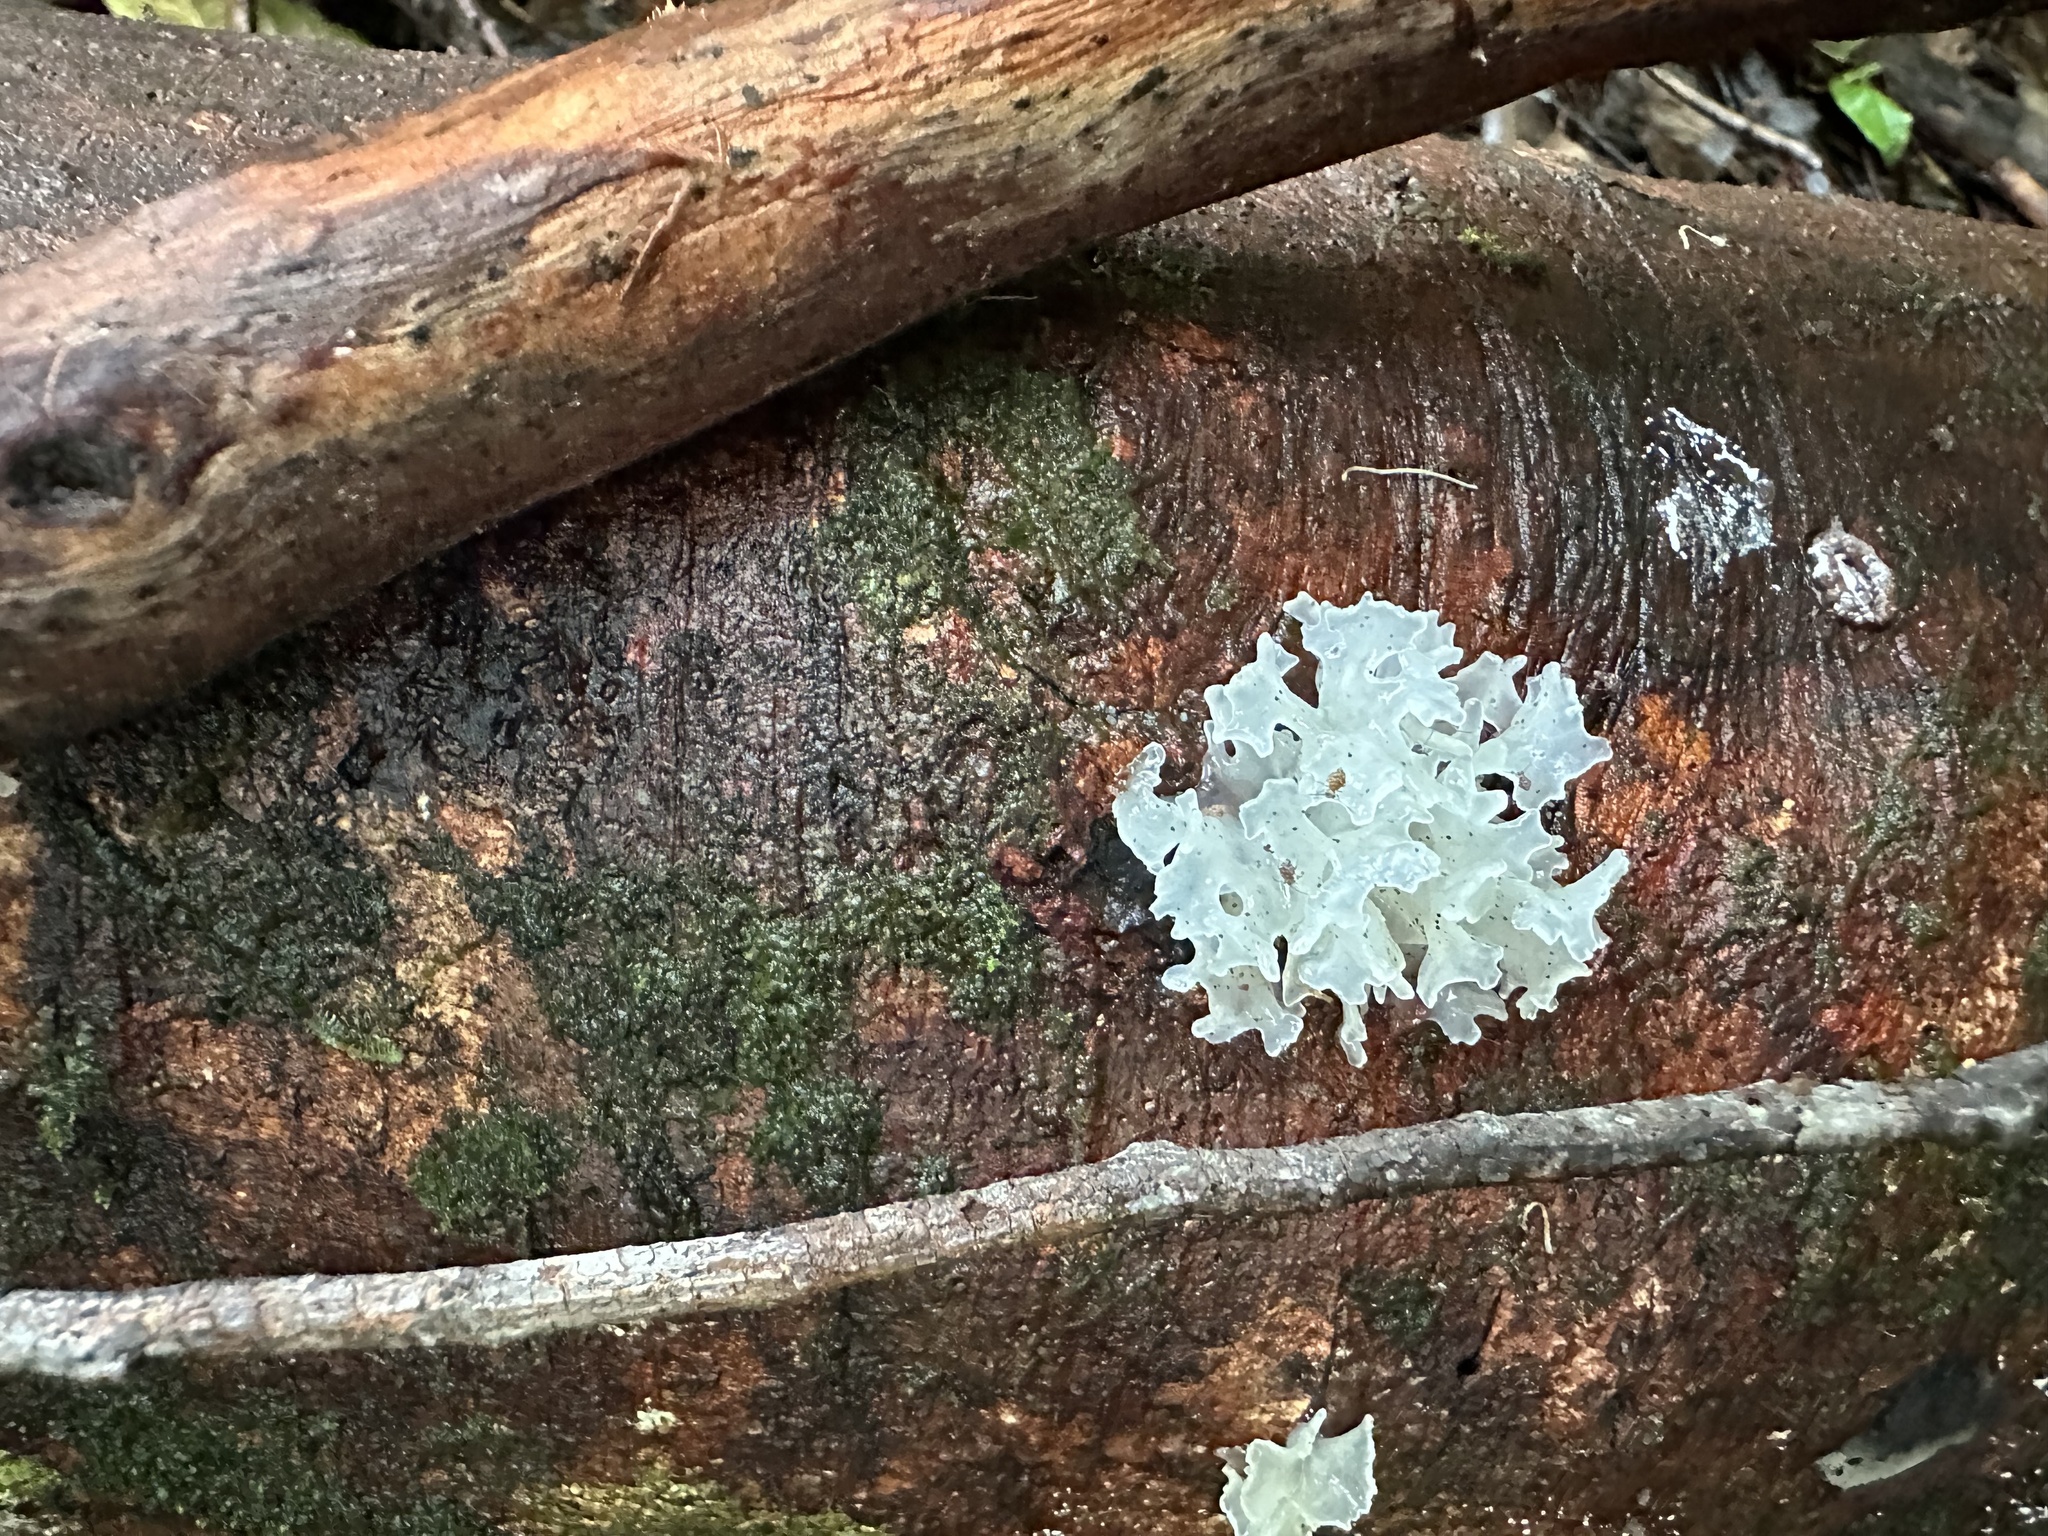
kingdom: Fungi
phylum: Basidiomycota
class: Tremellomycetes
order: Tremellales
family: Tremellaceae
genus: Tremella
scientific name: Tremella fuciformis
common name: Snow fungus
